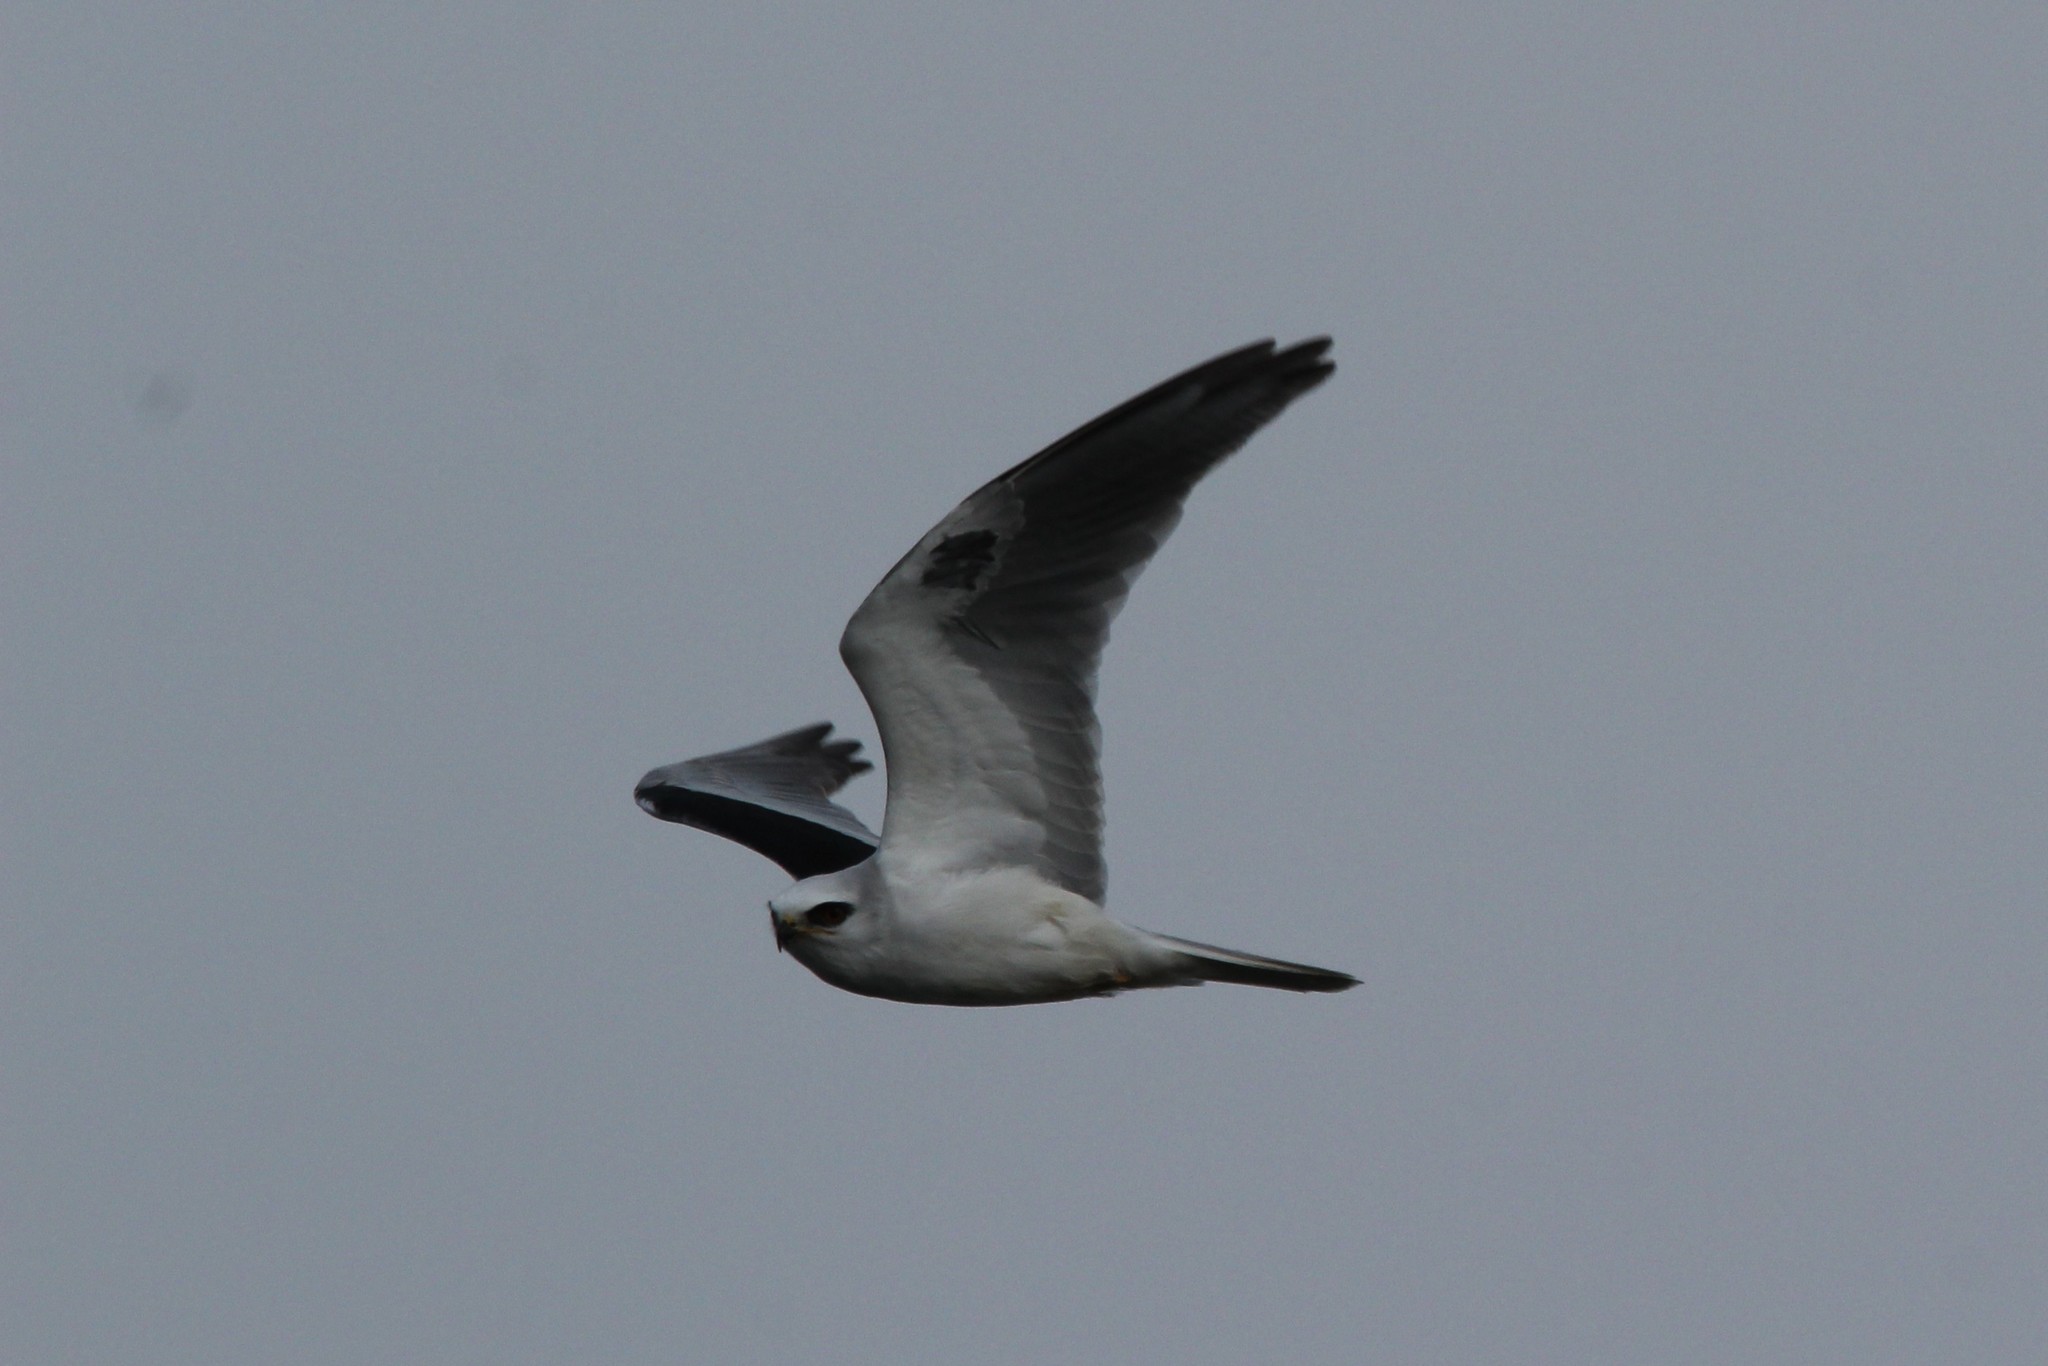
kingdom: Animalia
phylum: Chordata
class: Aves
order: Accipitriformes
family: Accipitridae
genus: Elanus
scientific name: Elanus leucurus
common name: White-tailed kite
